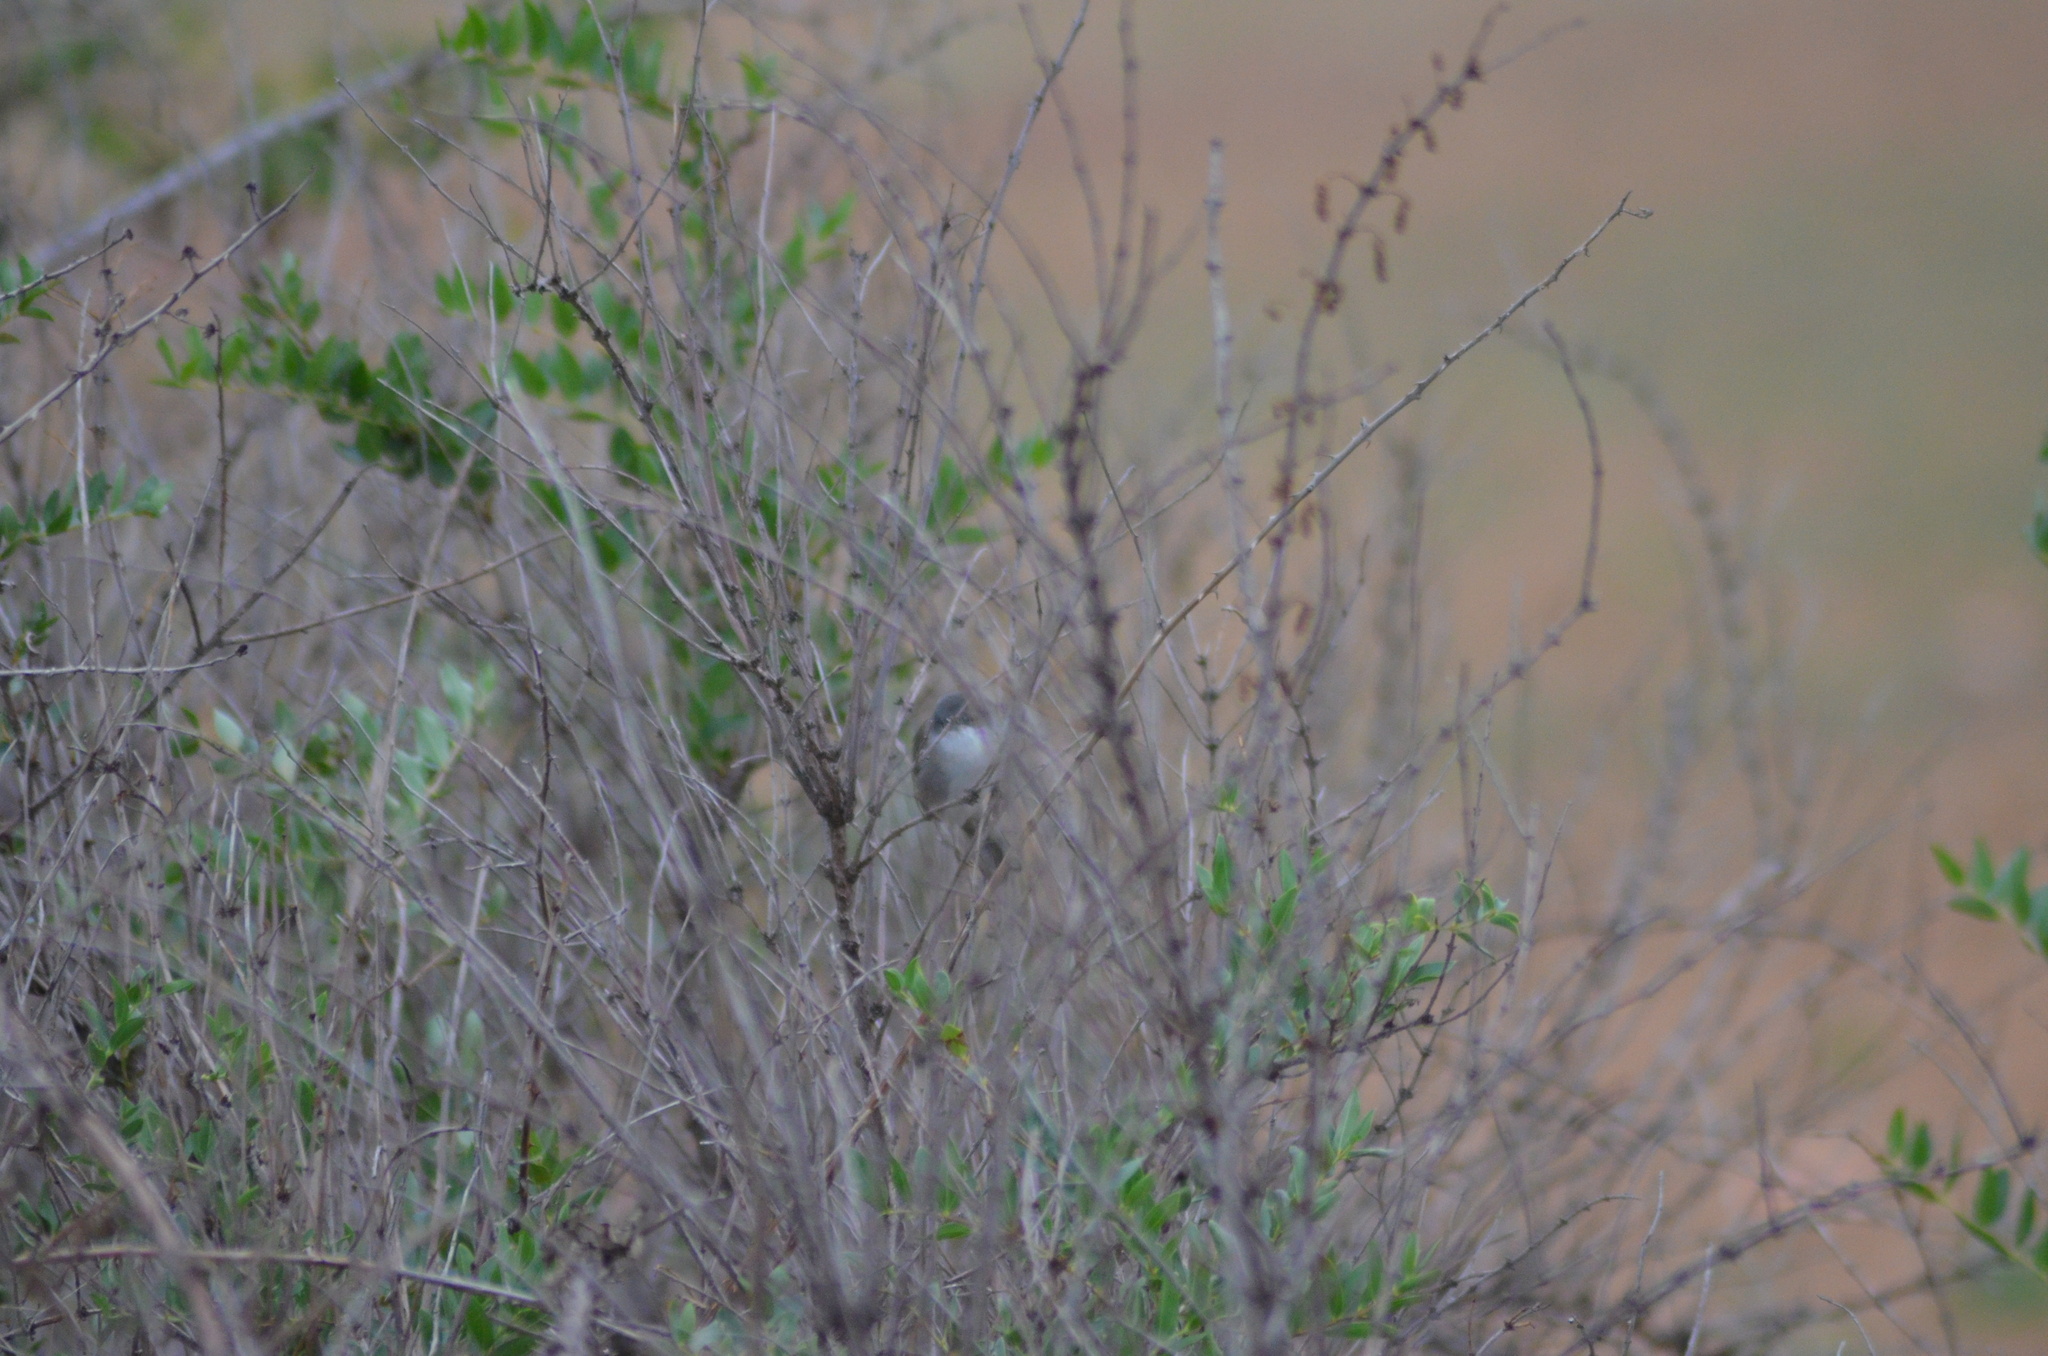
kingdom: Animalia
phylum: Chordata
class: Aves
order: Passeriformes
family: Sylviidae
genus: Curruca
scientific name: Curruca melanocephala
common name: Sardinian warbler
